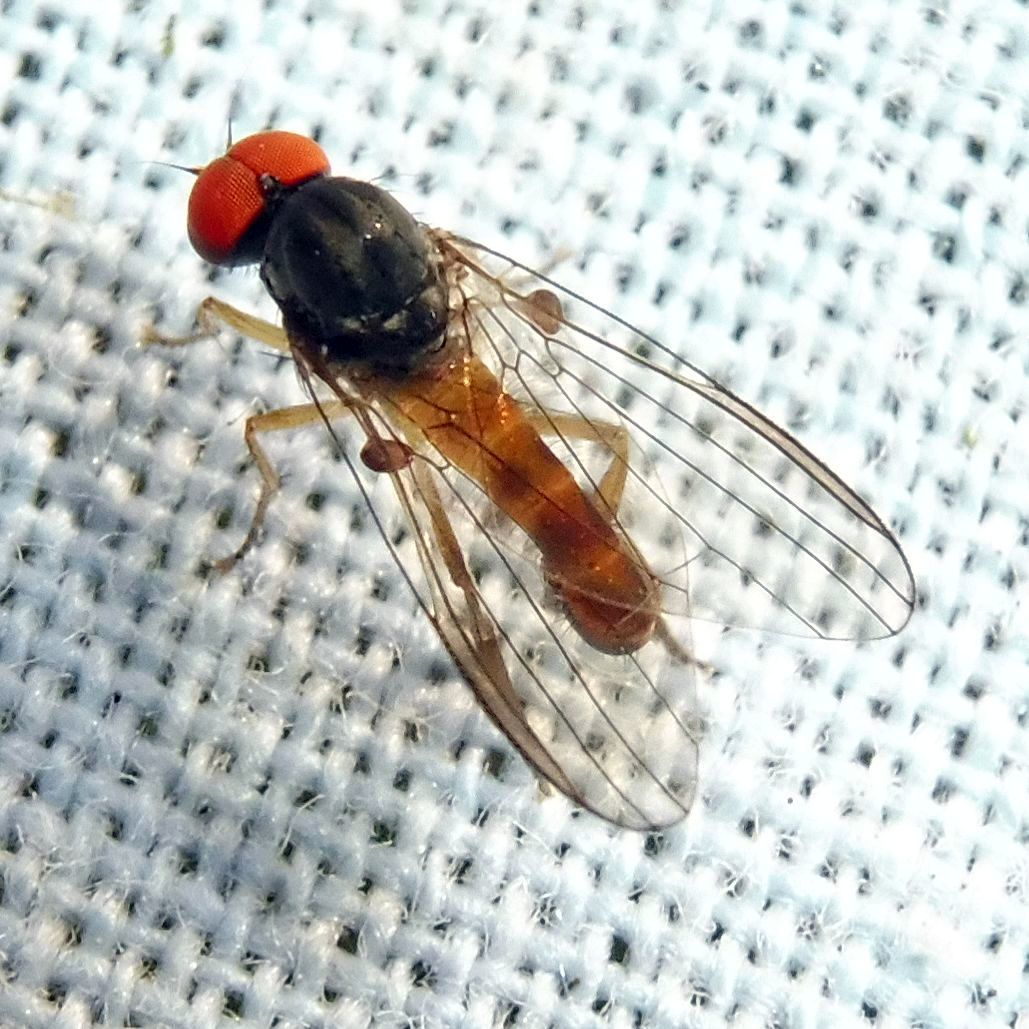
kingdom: Animalia
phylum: Arthropoda
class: Insecta
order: Diptera
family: Platypezidae
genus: Agathomyia
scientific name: Agathomyia falleni
